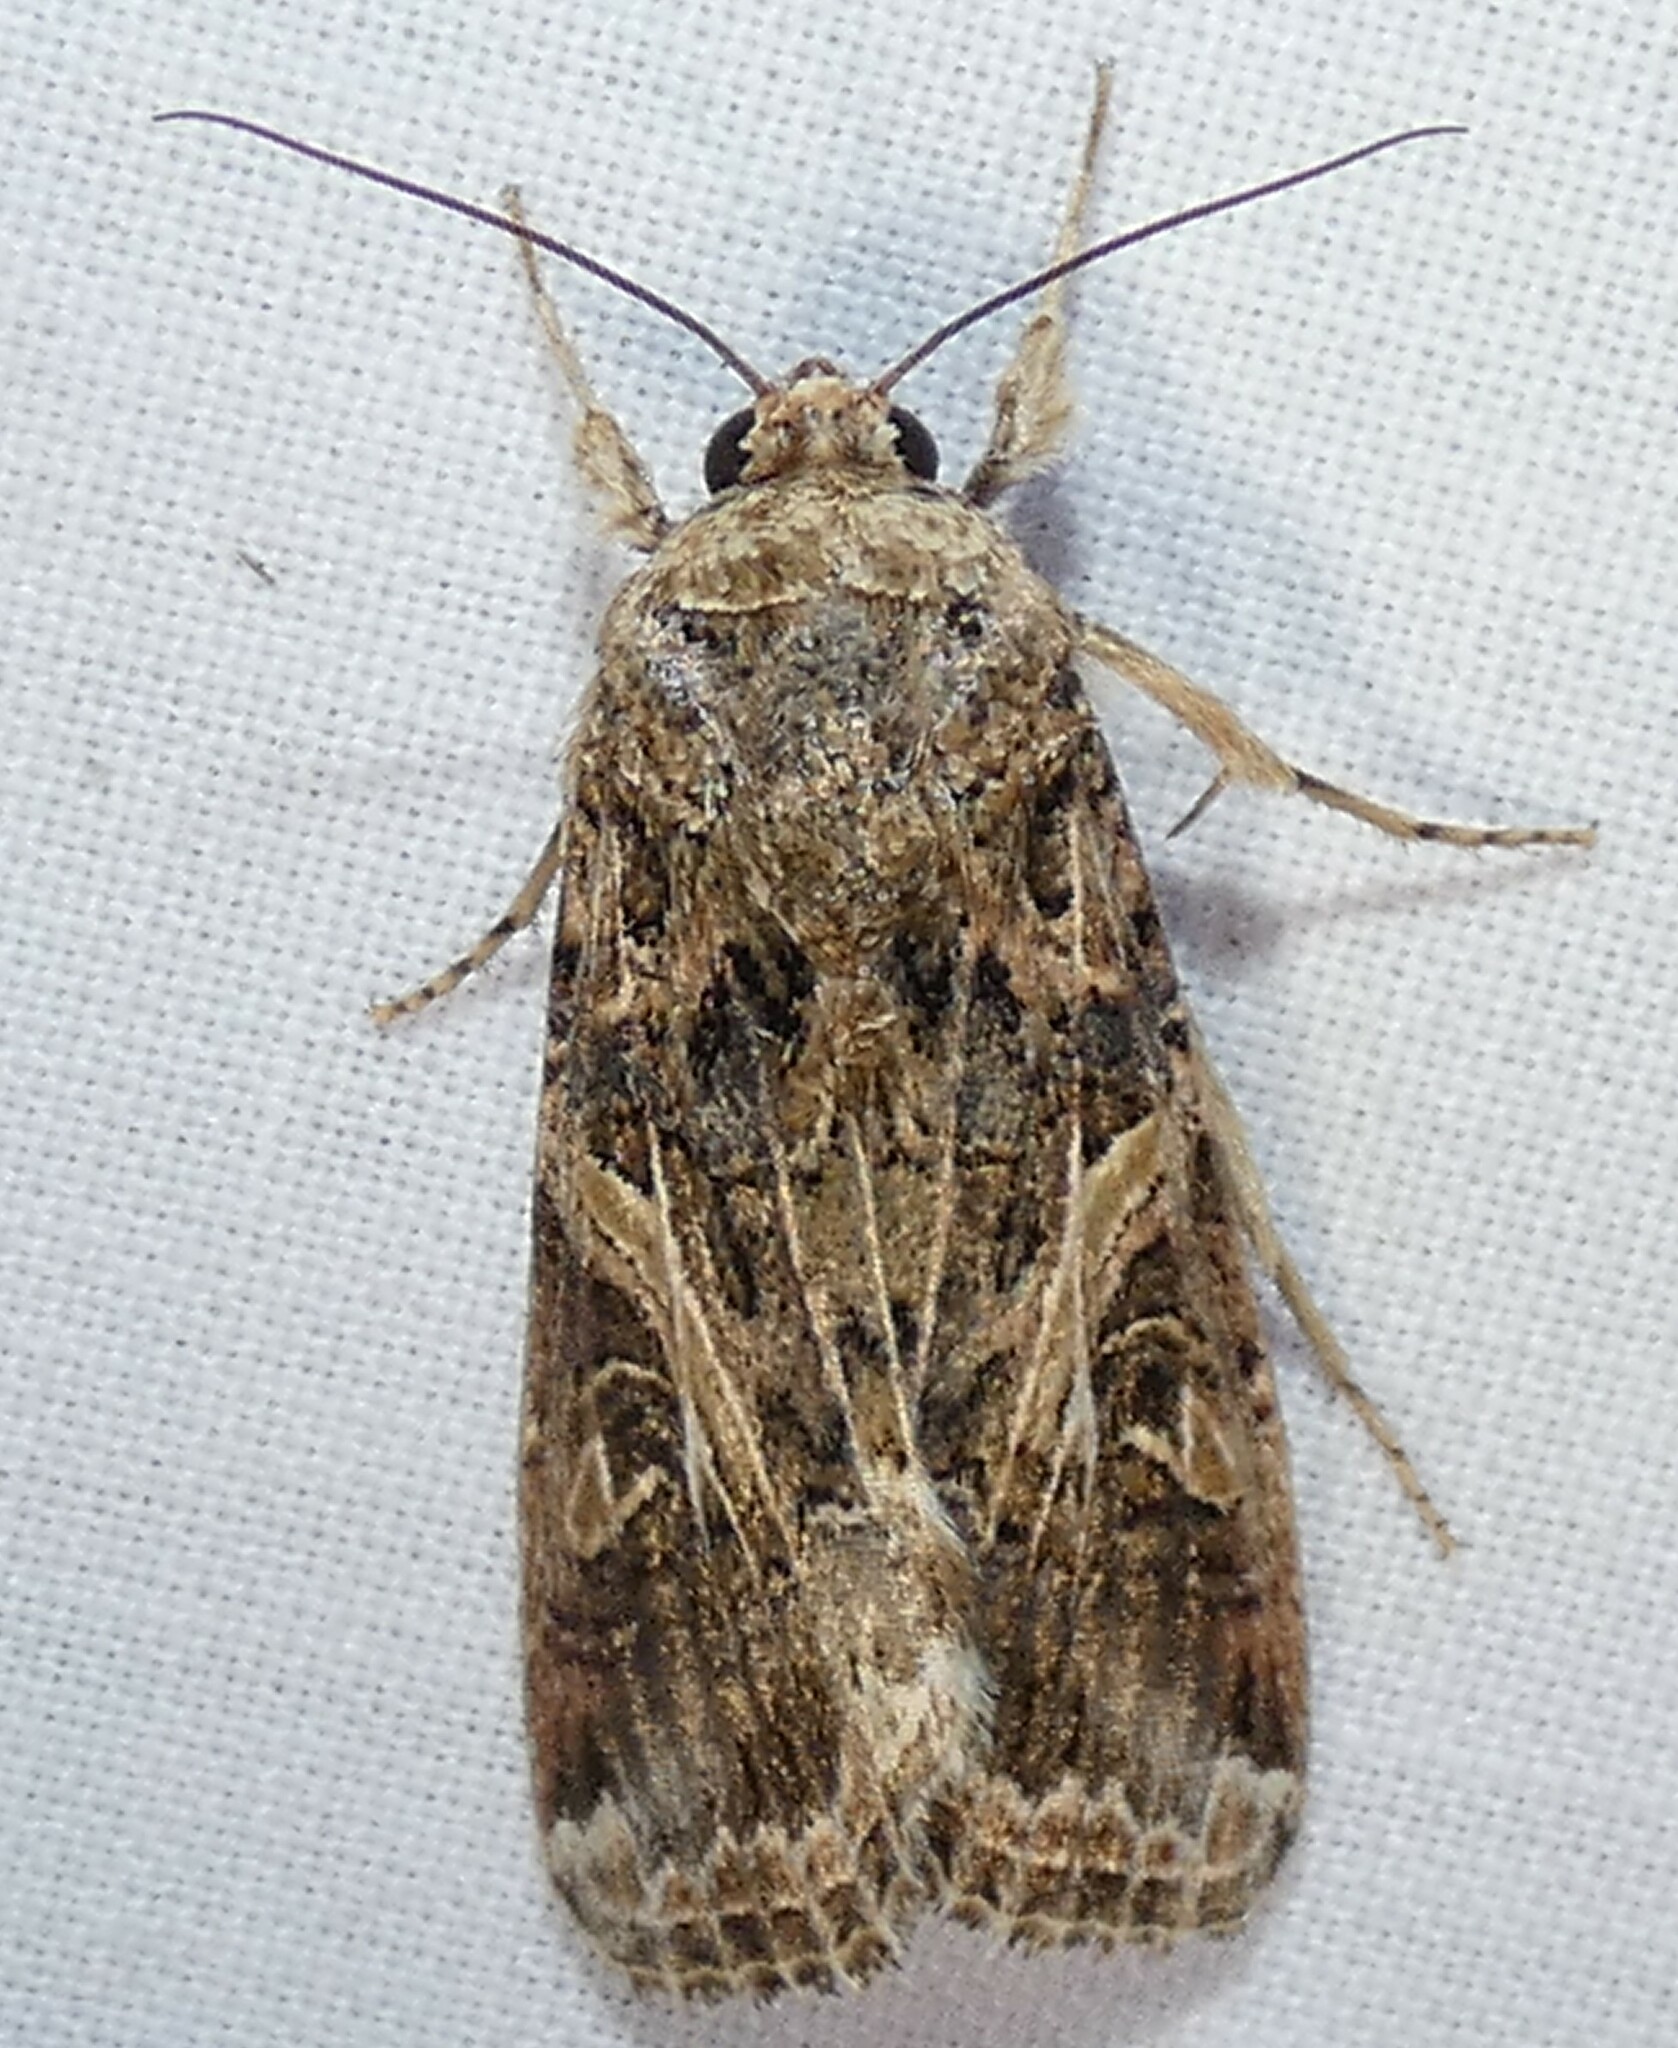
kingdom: Animalia
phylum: Arthropoda
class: Insecta
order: Lepidoptera
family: Noctuidae
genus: Spodoptera
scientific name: Spodoptera ornithogalli
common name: Yellow-striped armyworm
